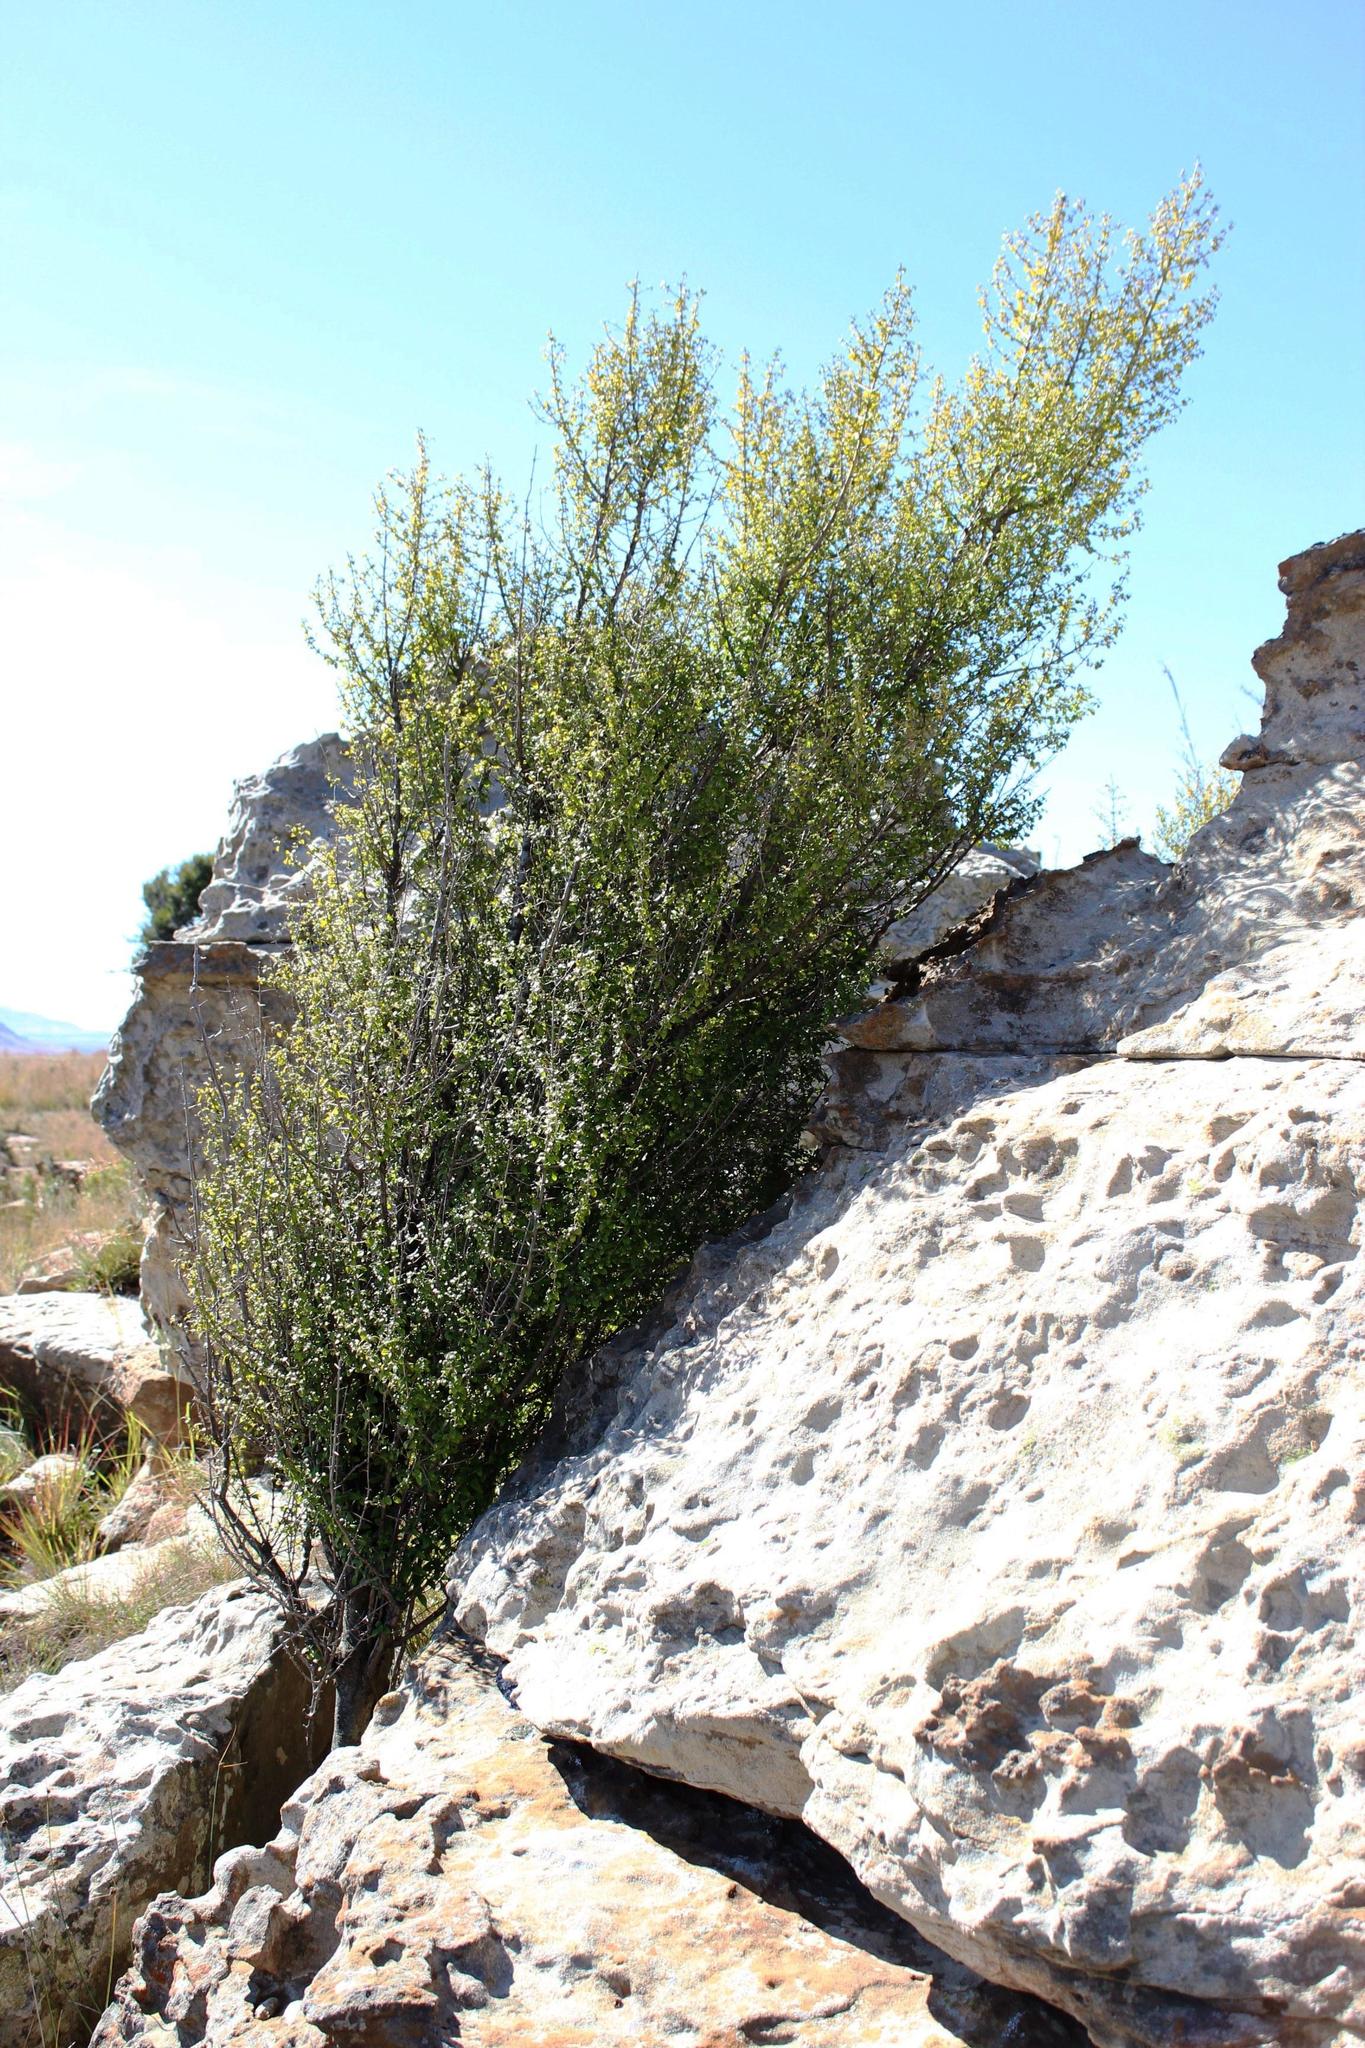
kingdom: Plantae
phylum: Tracheophyta
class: Magnoliopsida
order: Gentianales
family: Rubiaceae
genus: Canthium
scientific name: Canthium ciliatum
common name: Hairy turkey-berry
